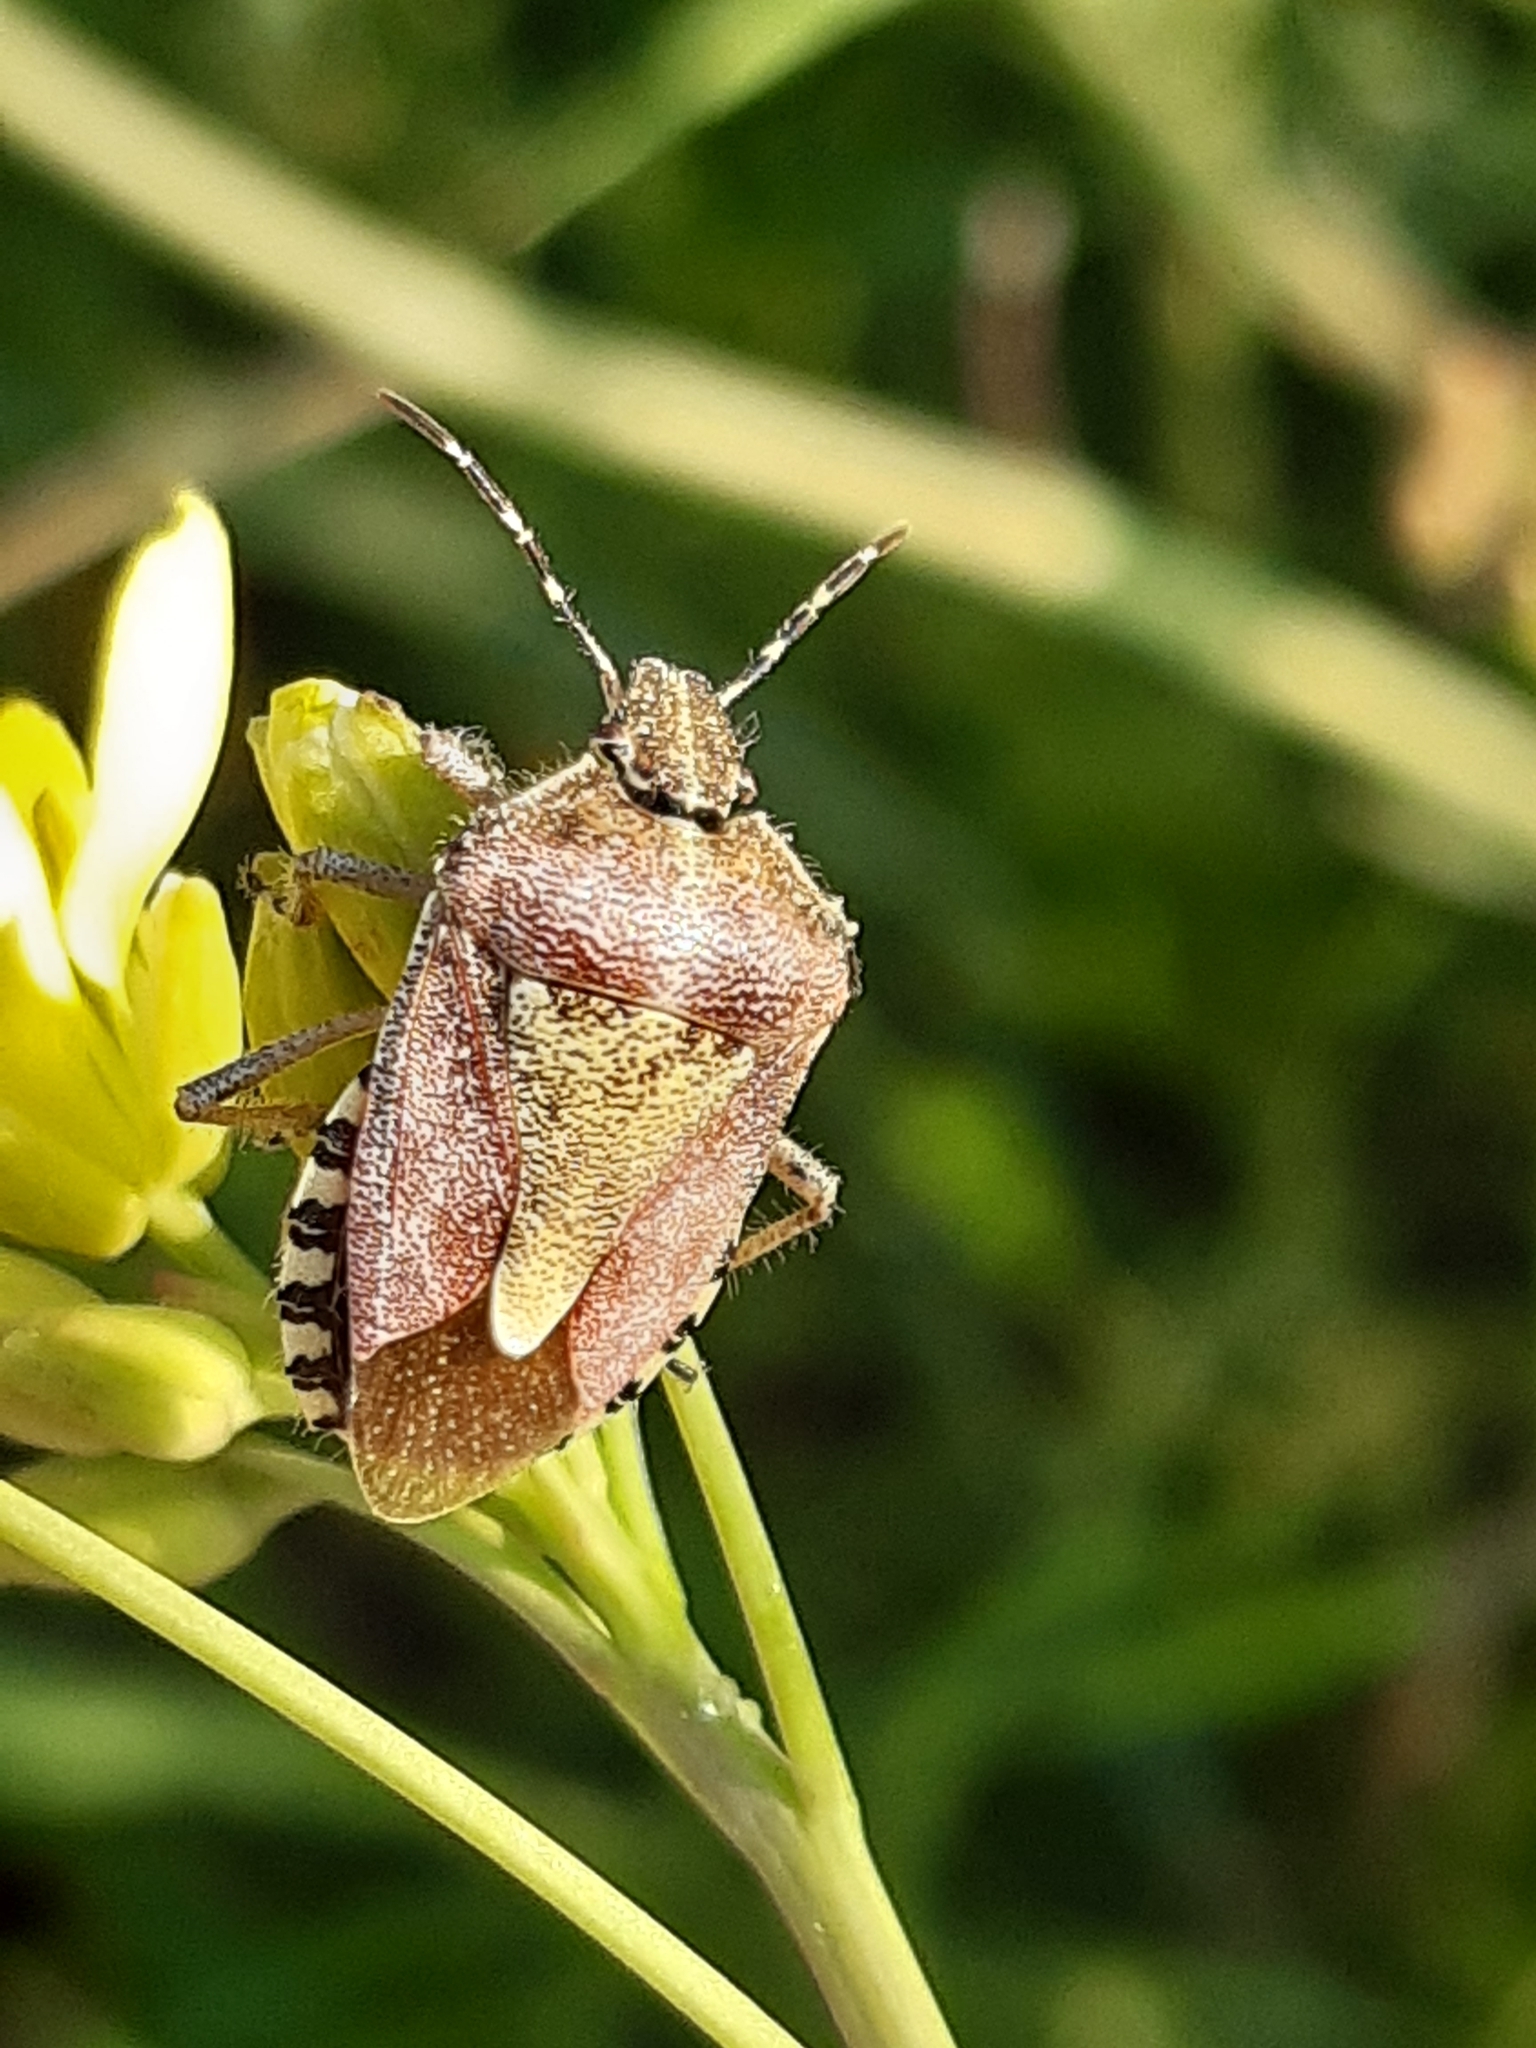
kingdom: Animalia
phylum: Arthropoda
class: Insecta
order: Hemiptera
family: Pentatomidae
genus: Dolycoris
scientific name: Dolycoris baccarum
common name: Sloe bug
